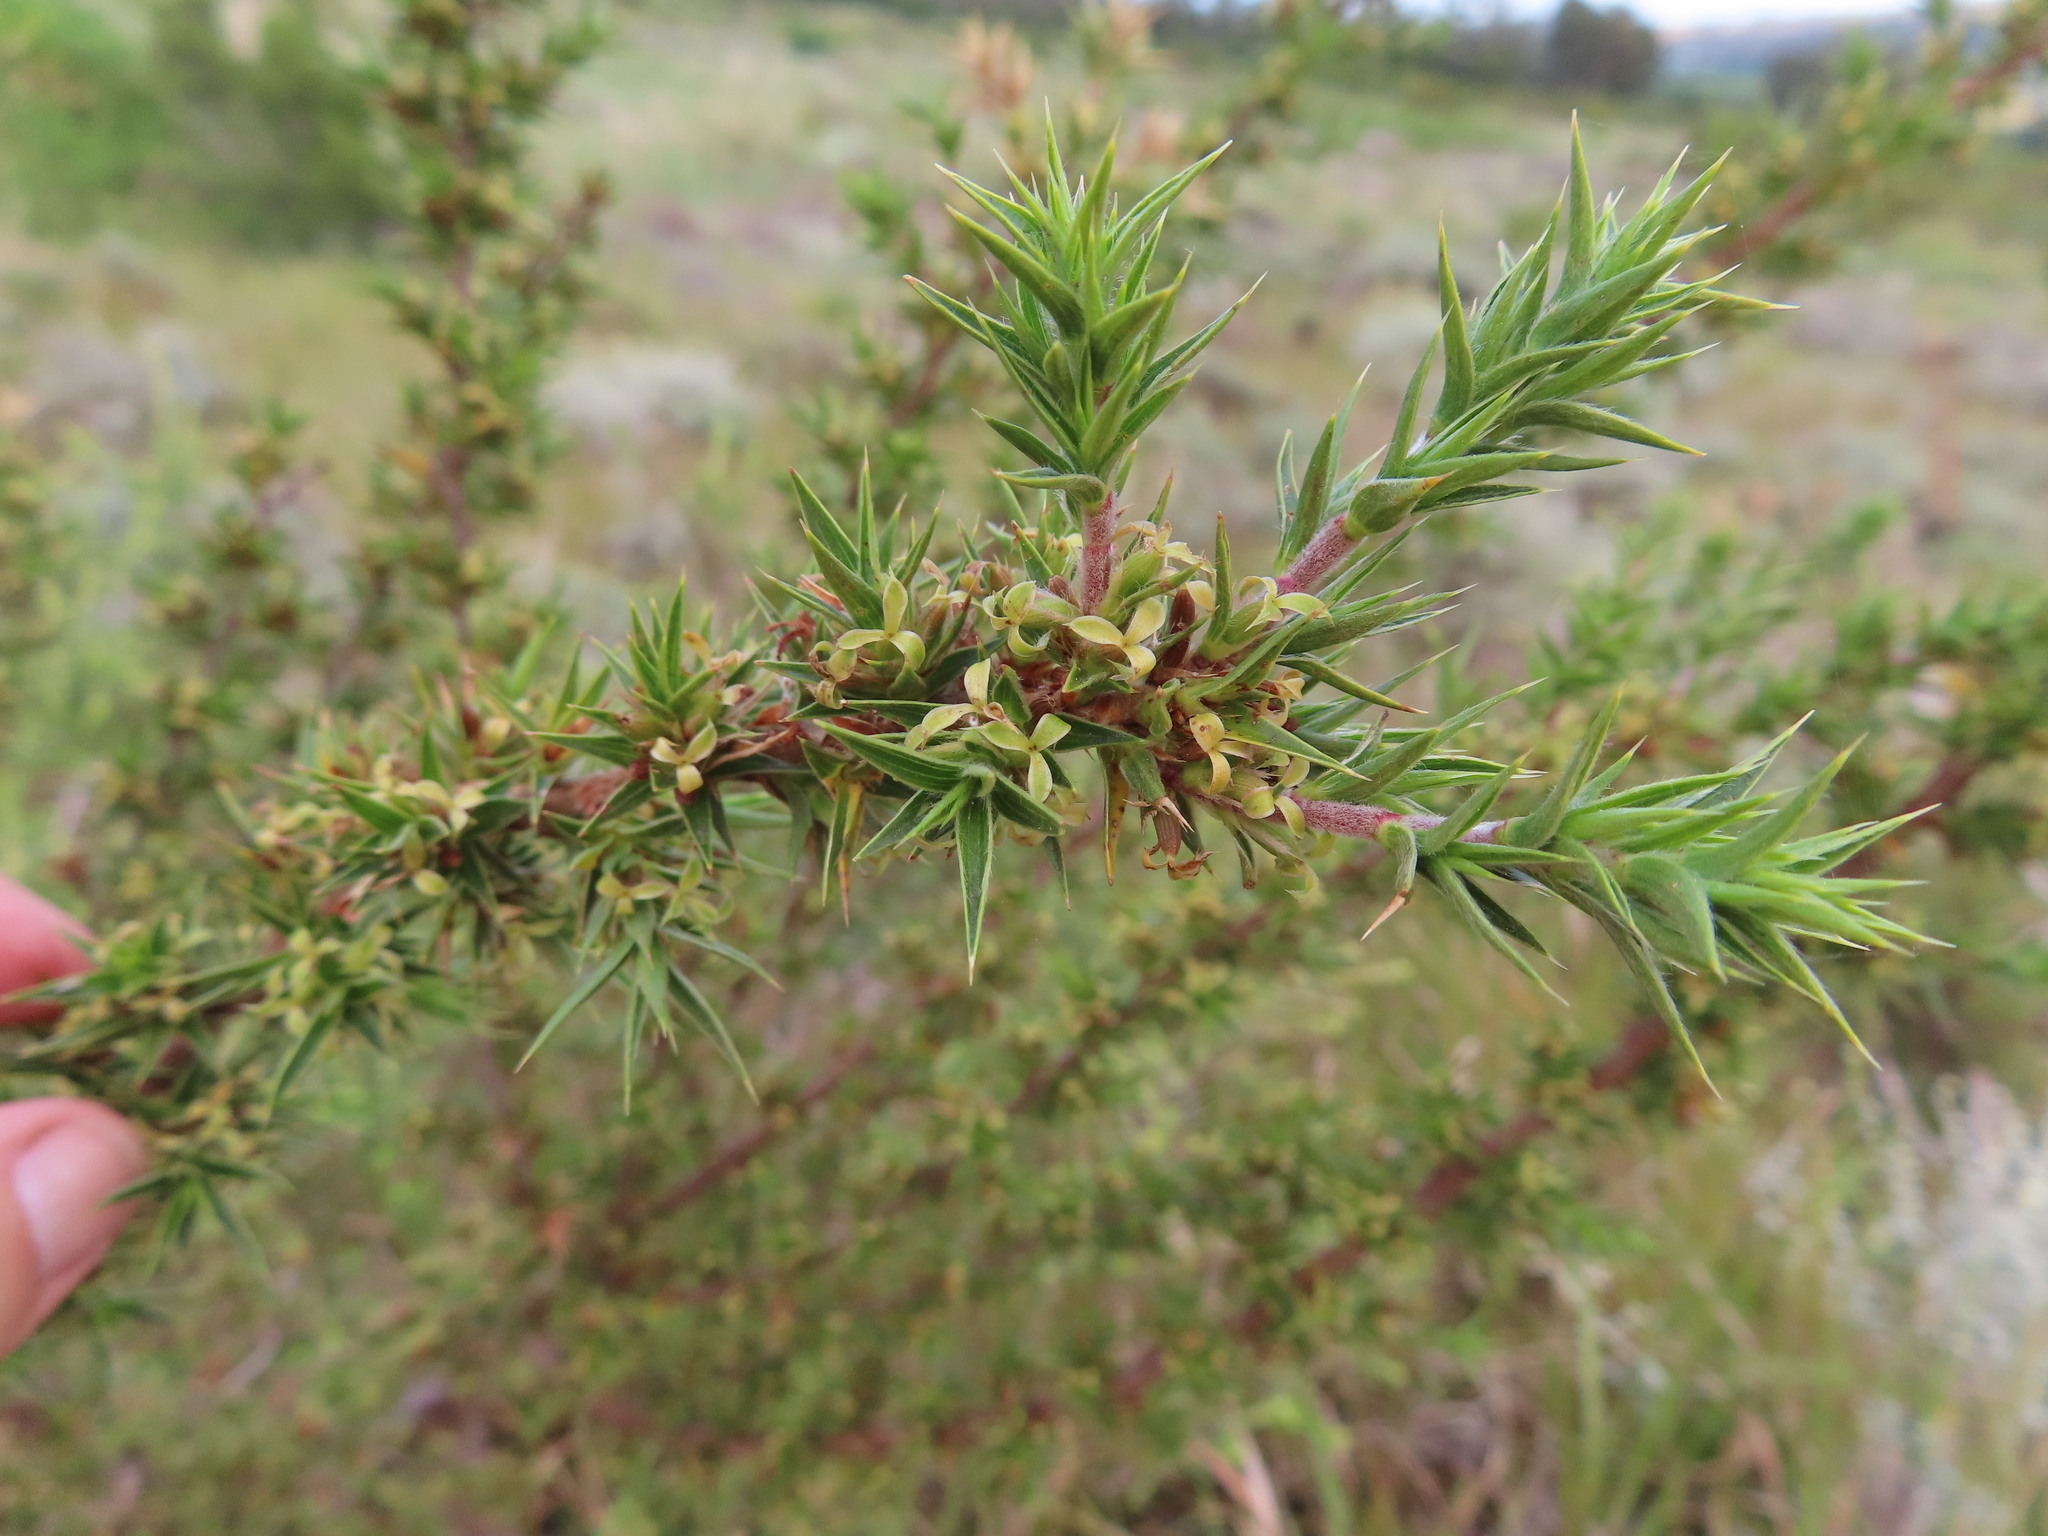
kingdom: Plantae
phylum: Tracheophyta
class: Magnoliopsida
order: Rosales
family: Rosaceae
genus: Cliffortia
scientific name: Cliffortia ruscifolia
